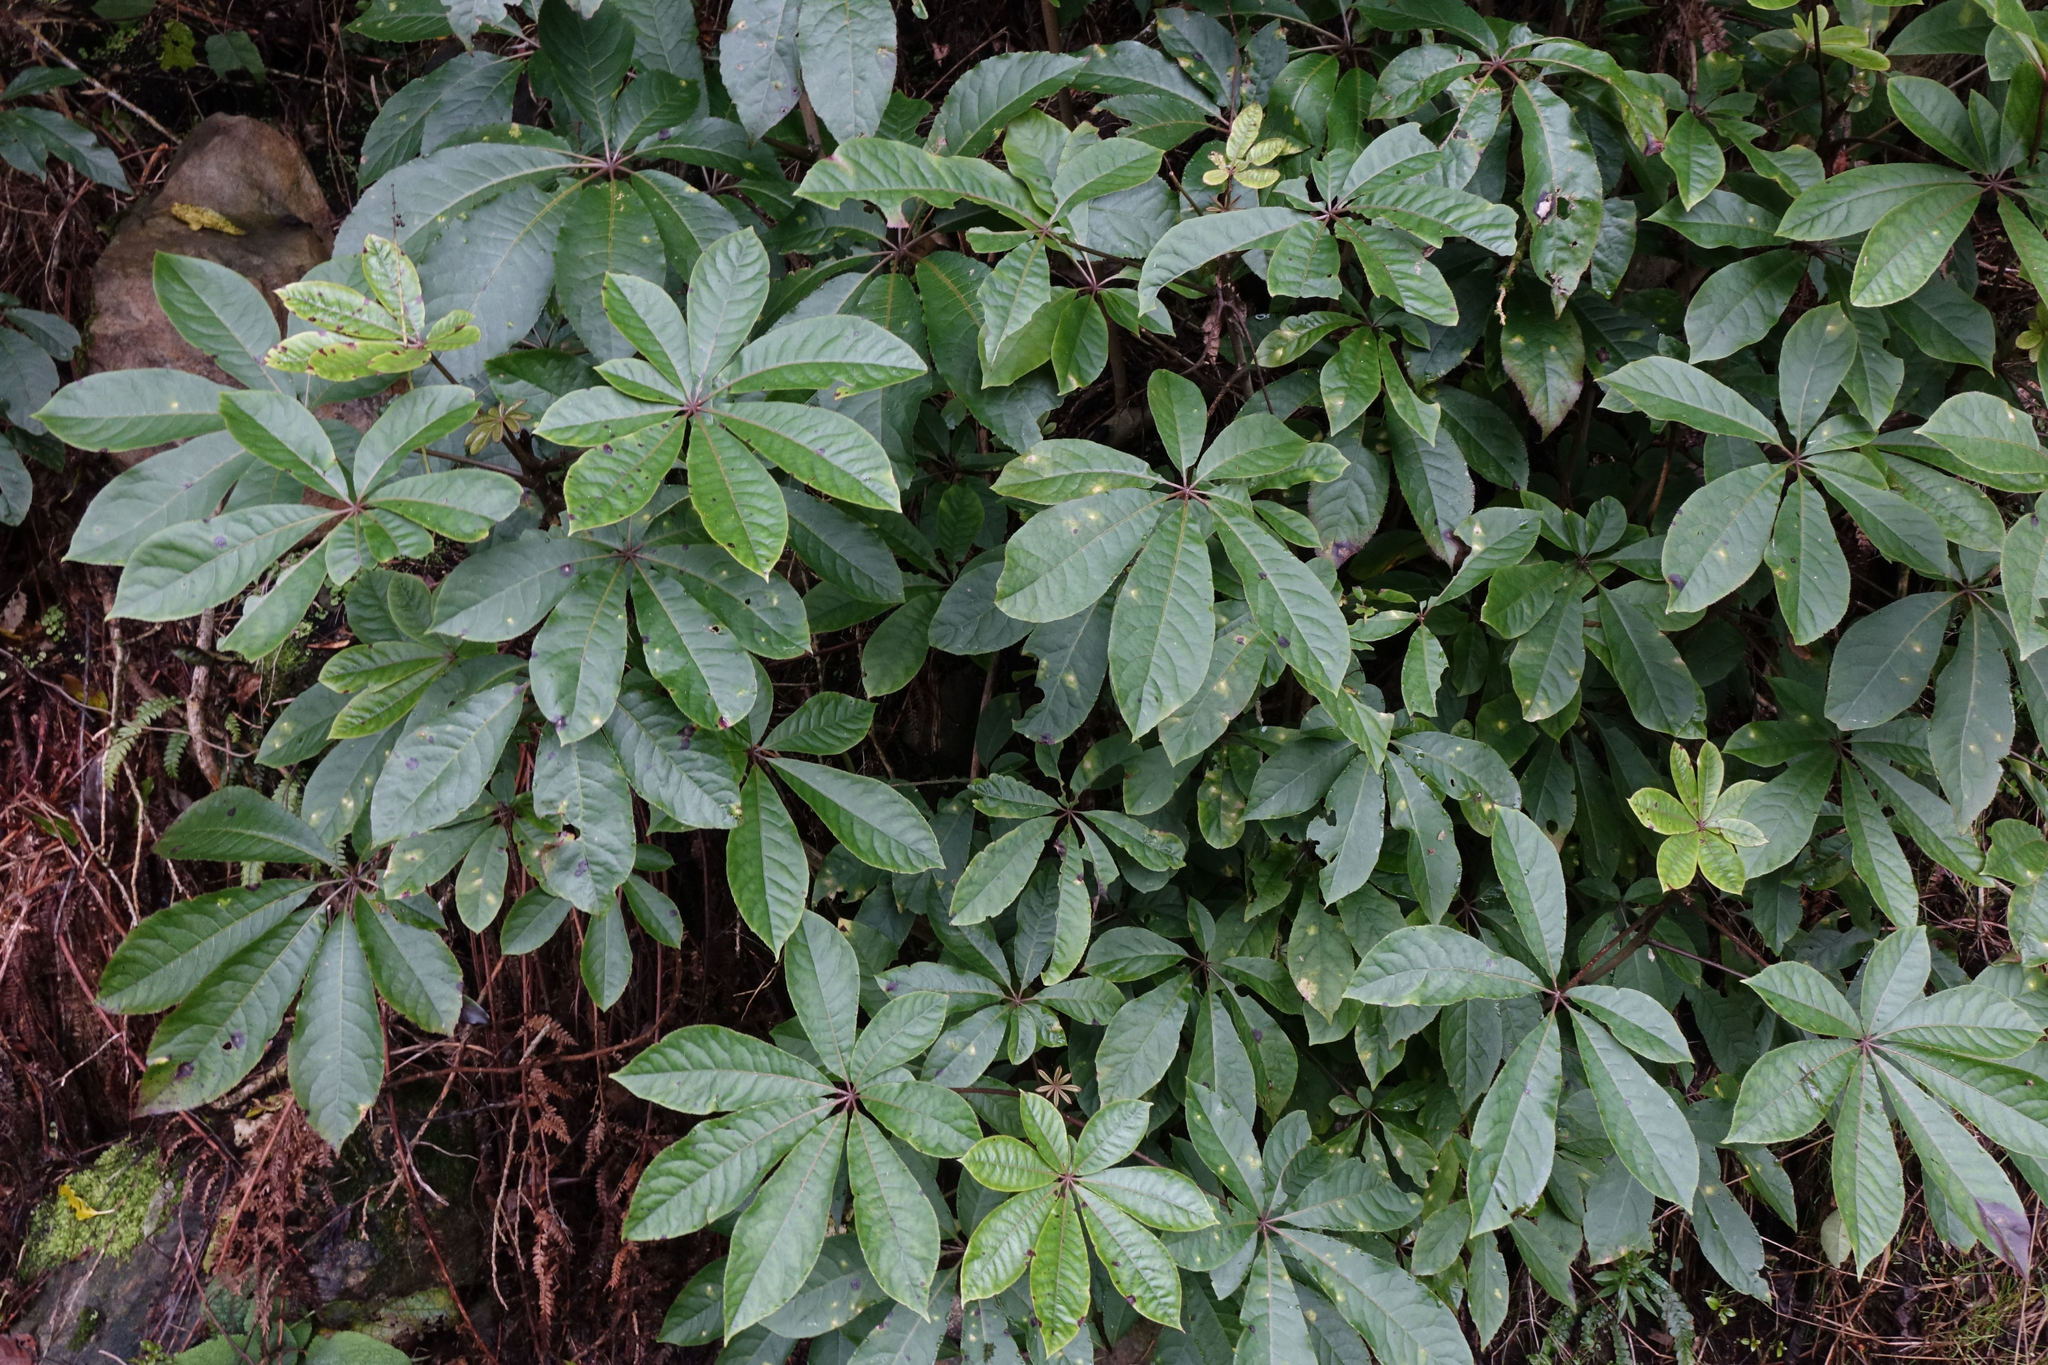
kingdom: Plantae
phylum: Tracheophyta
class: Magnoliopsida
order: Apiales
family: Araliaceae
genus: Schefflera
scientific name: Schefflera digitata
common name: Pate
